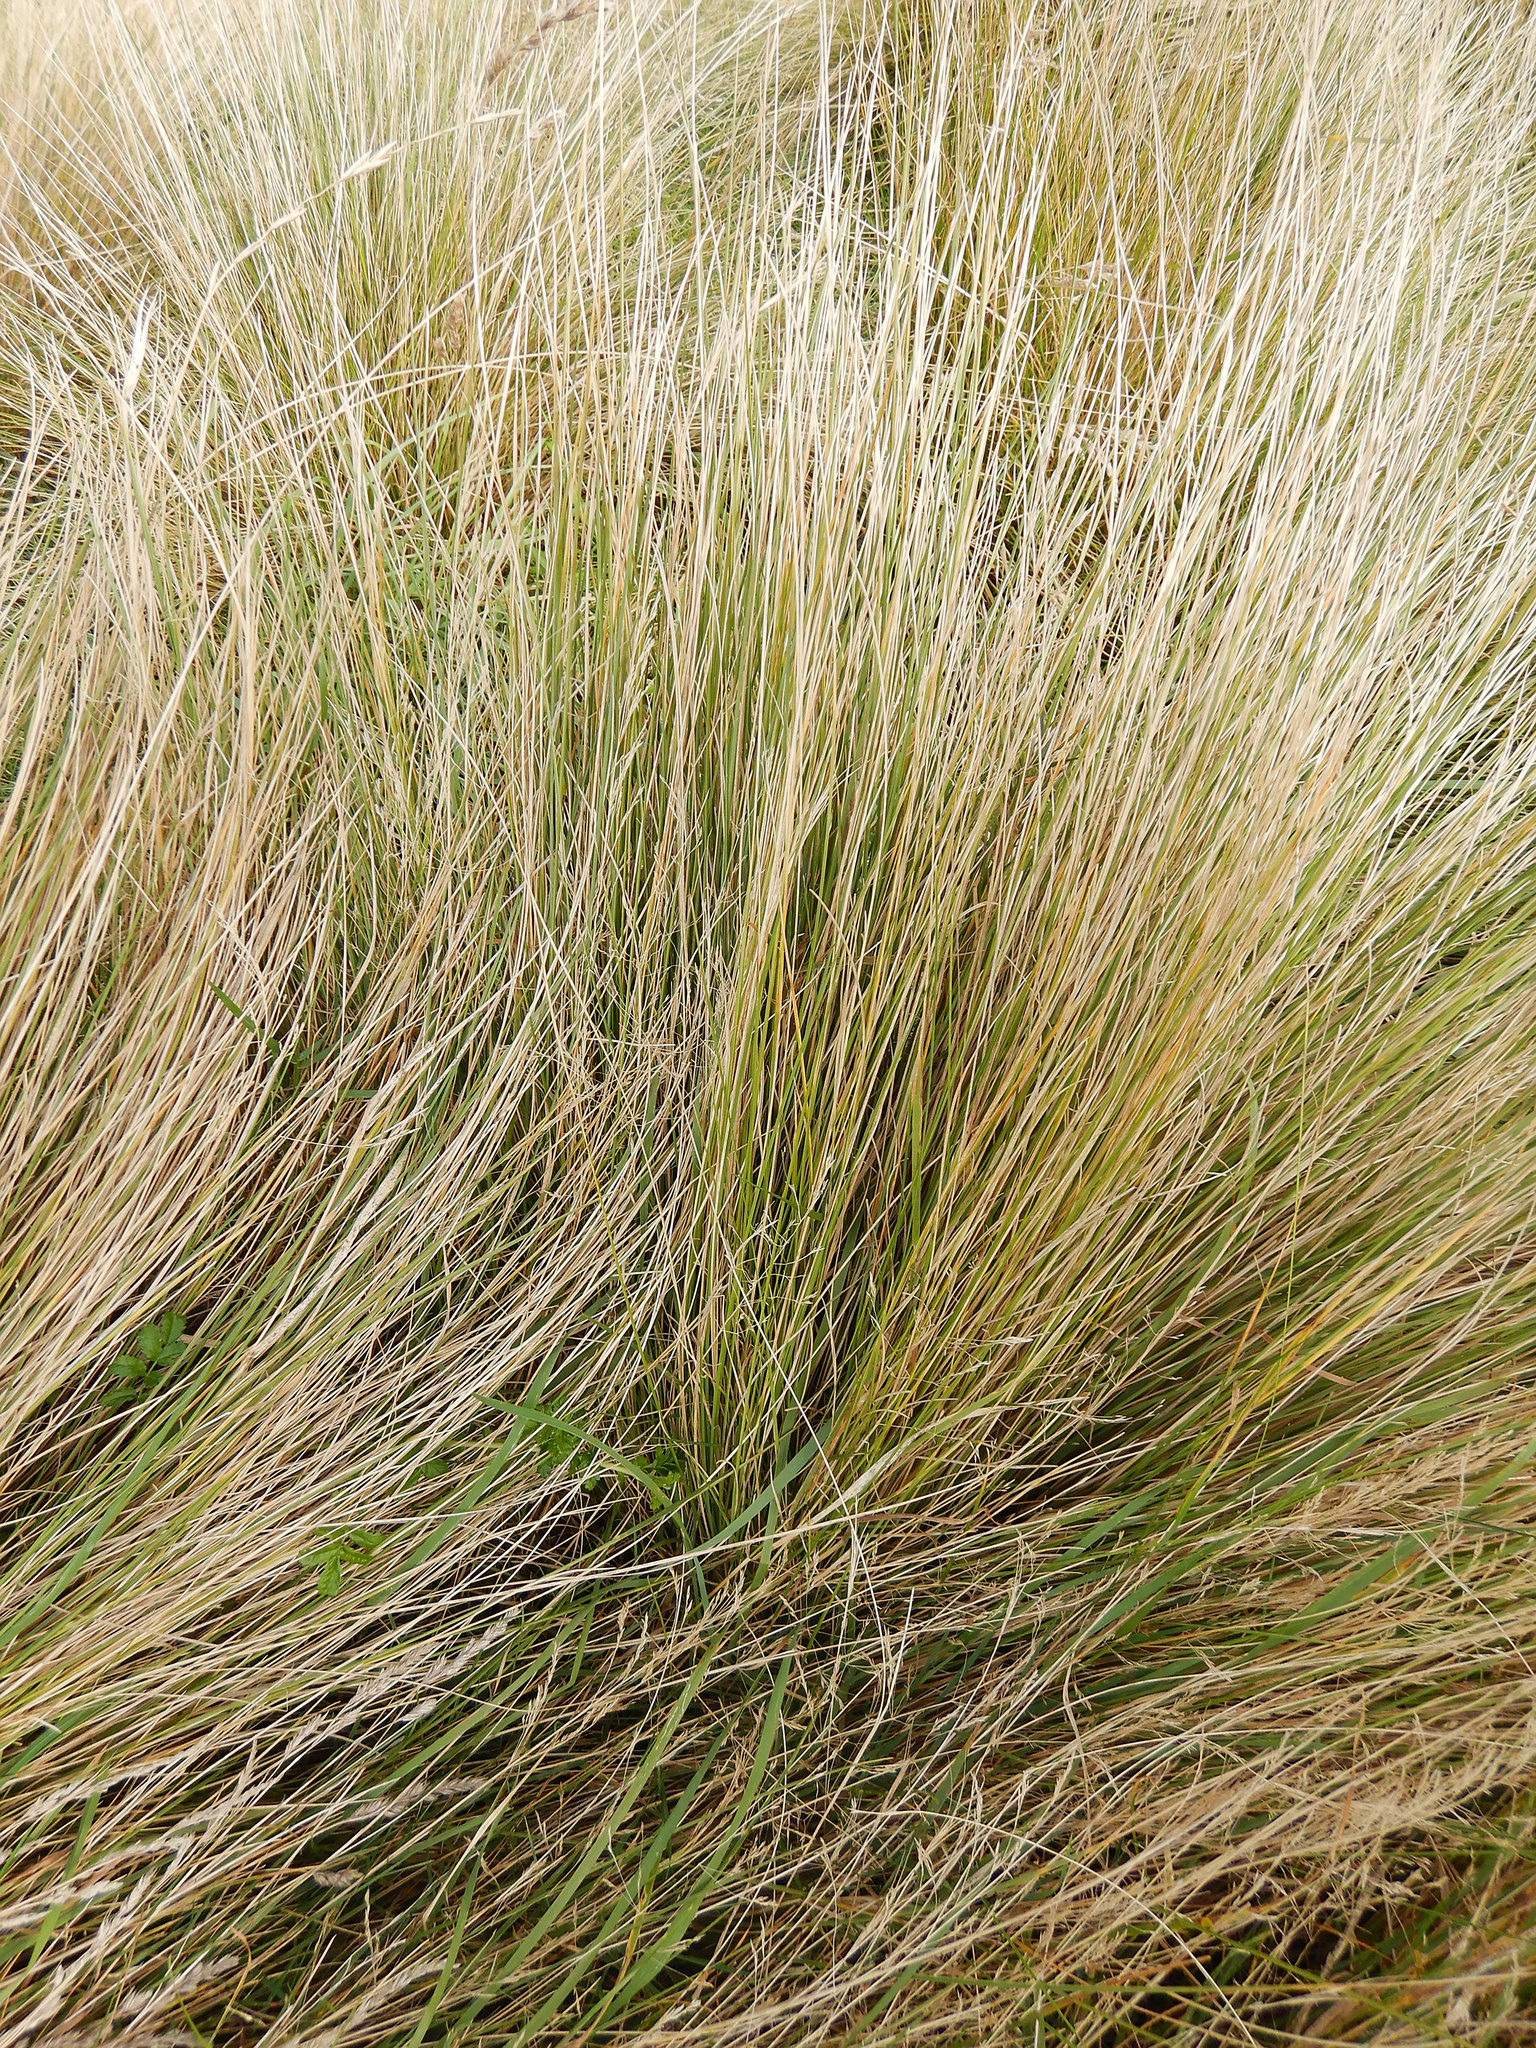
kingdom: Plantae
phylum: Tracheophyta
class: Liliopsida
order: Poales
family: Poaceae
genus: Poa
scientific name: Poa cita
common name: Silver tussock
